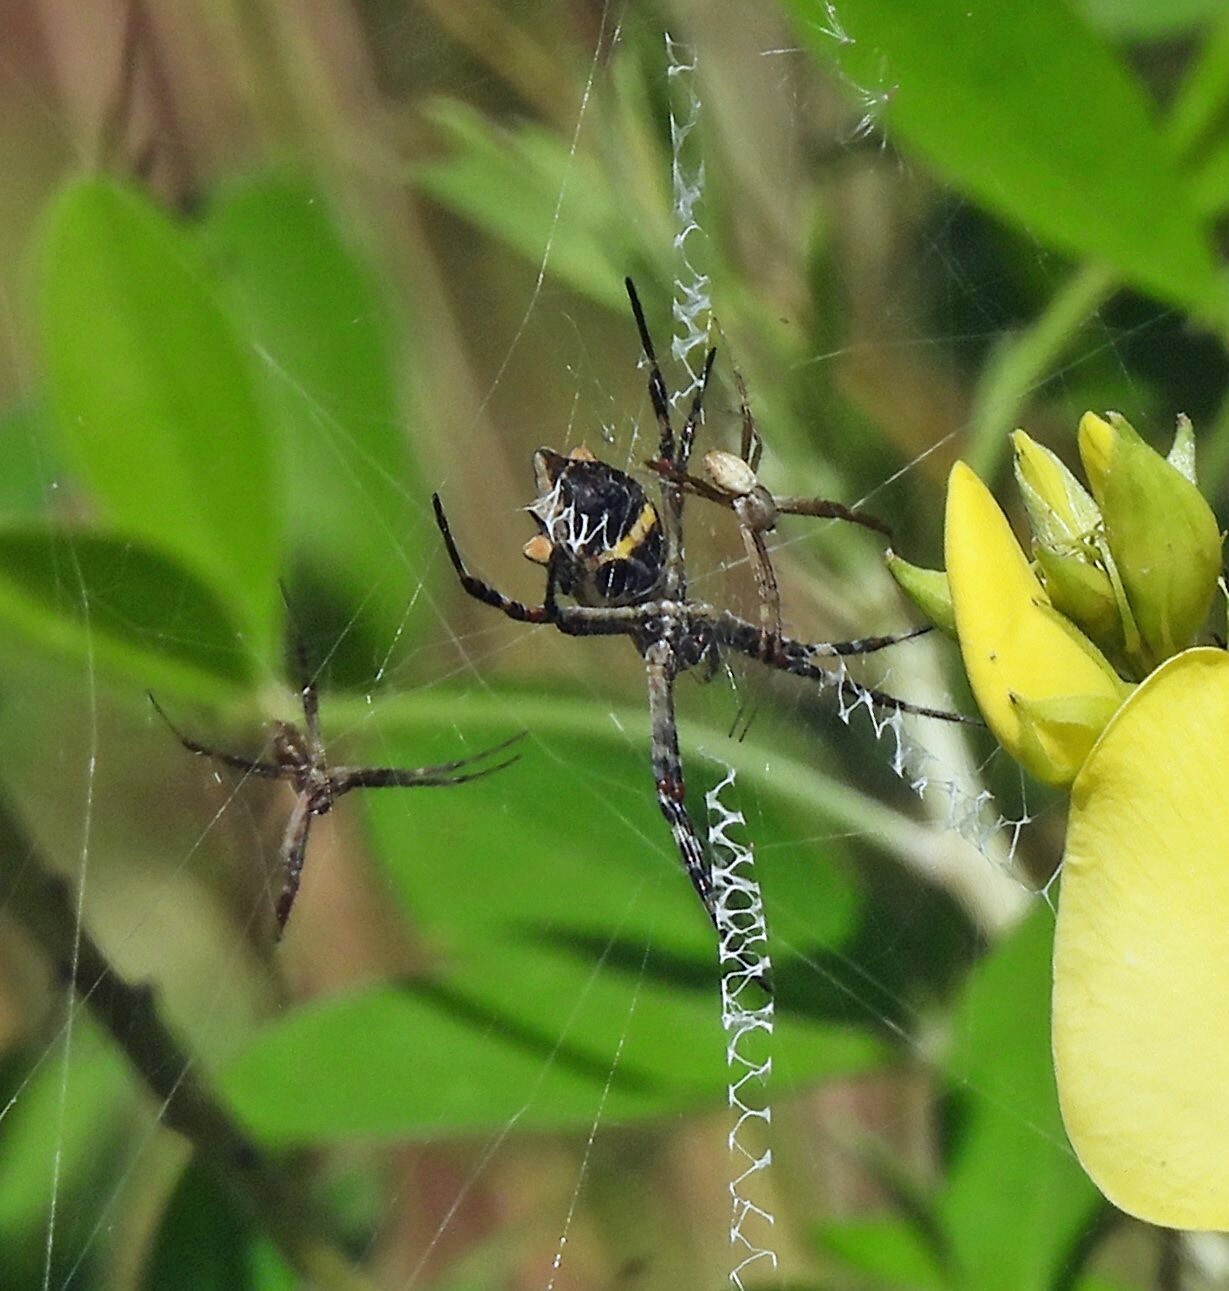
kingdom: Animalia
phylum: Arthropoda
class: Arachnida
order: Araneae
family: Araneidae
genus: Argiope
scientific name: Argiope argentata
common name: Orb weavers
